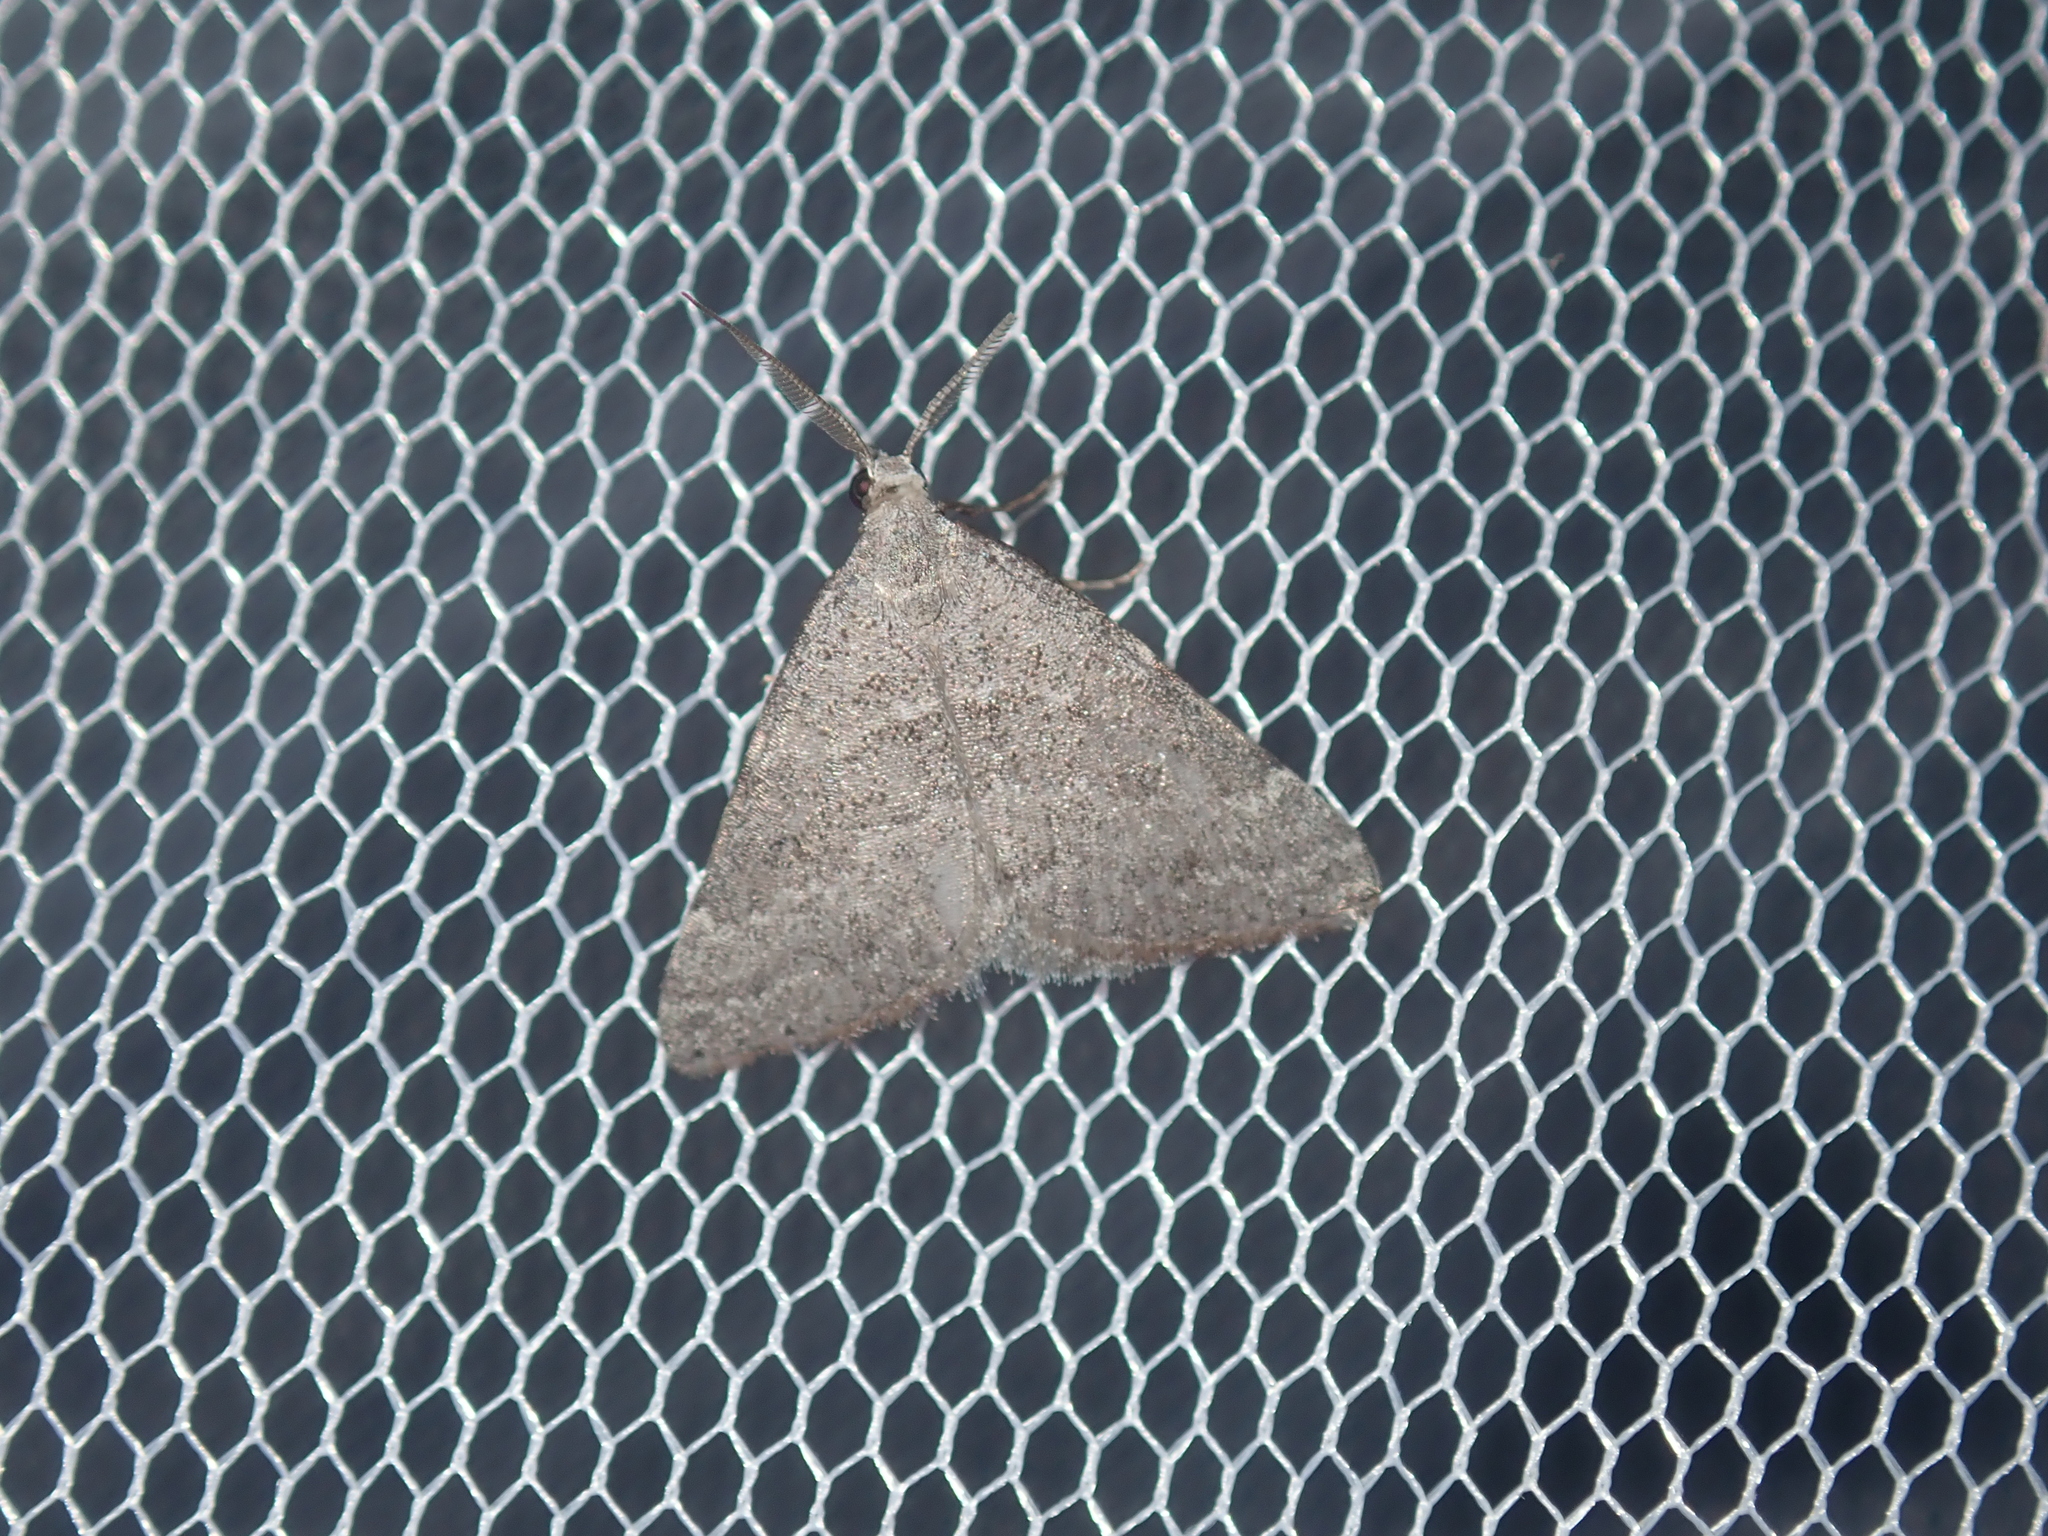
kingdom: Animalia
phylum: Arthropoda
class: Insecta
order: Lepidoptera
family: Geometridae
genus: Dichromodes
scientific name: Dichromodes indicataria
